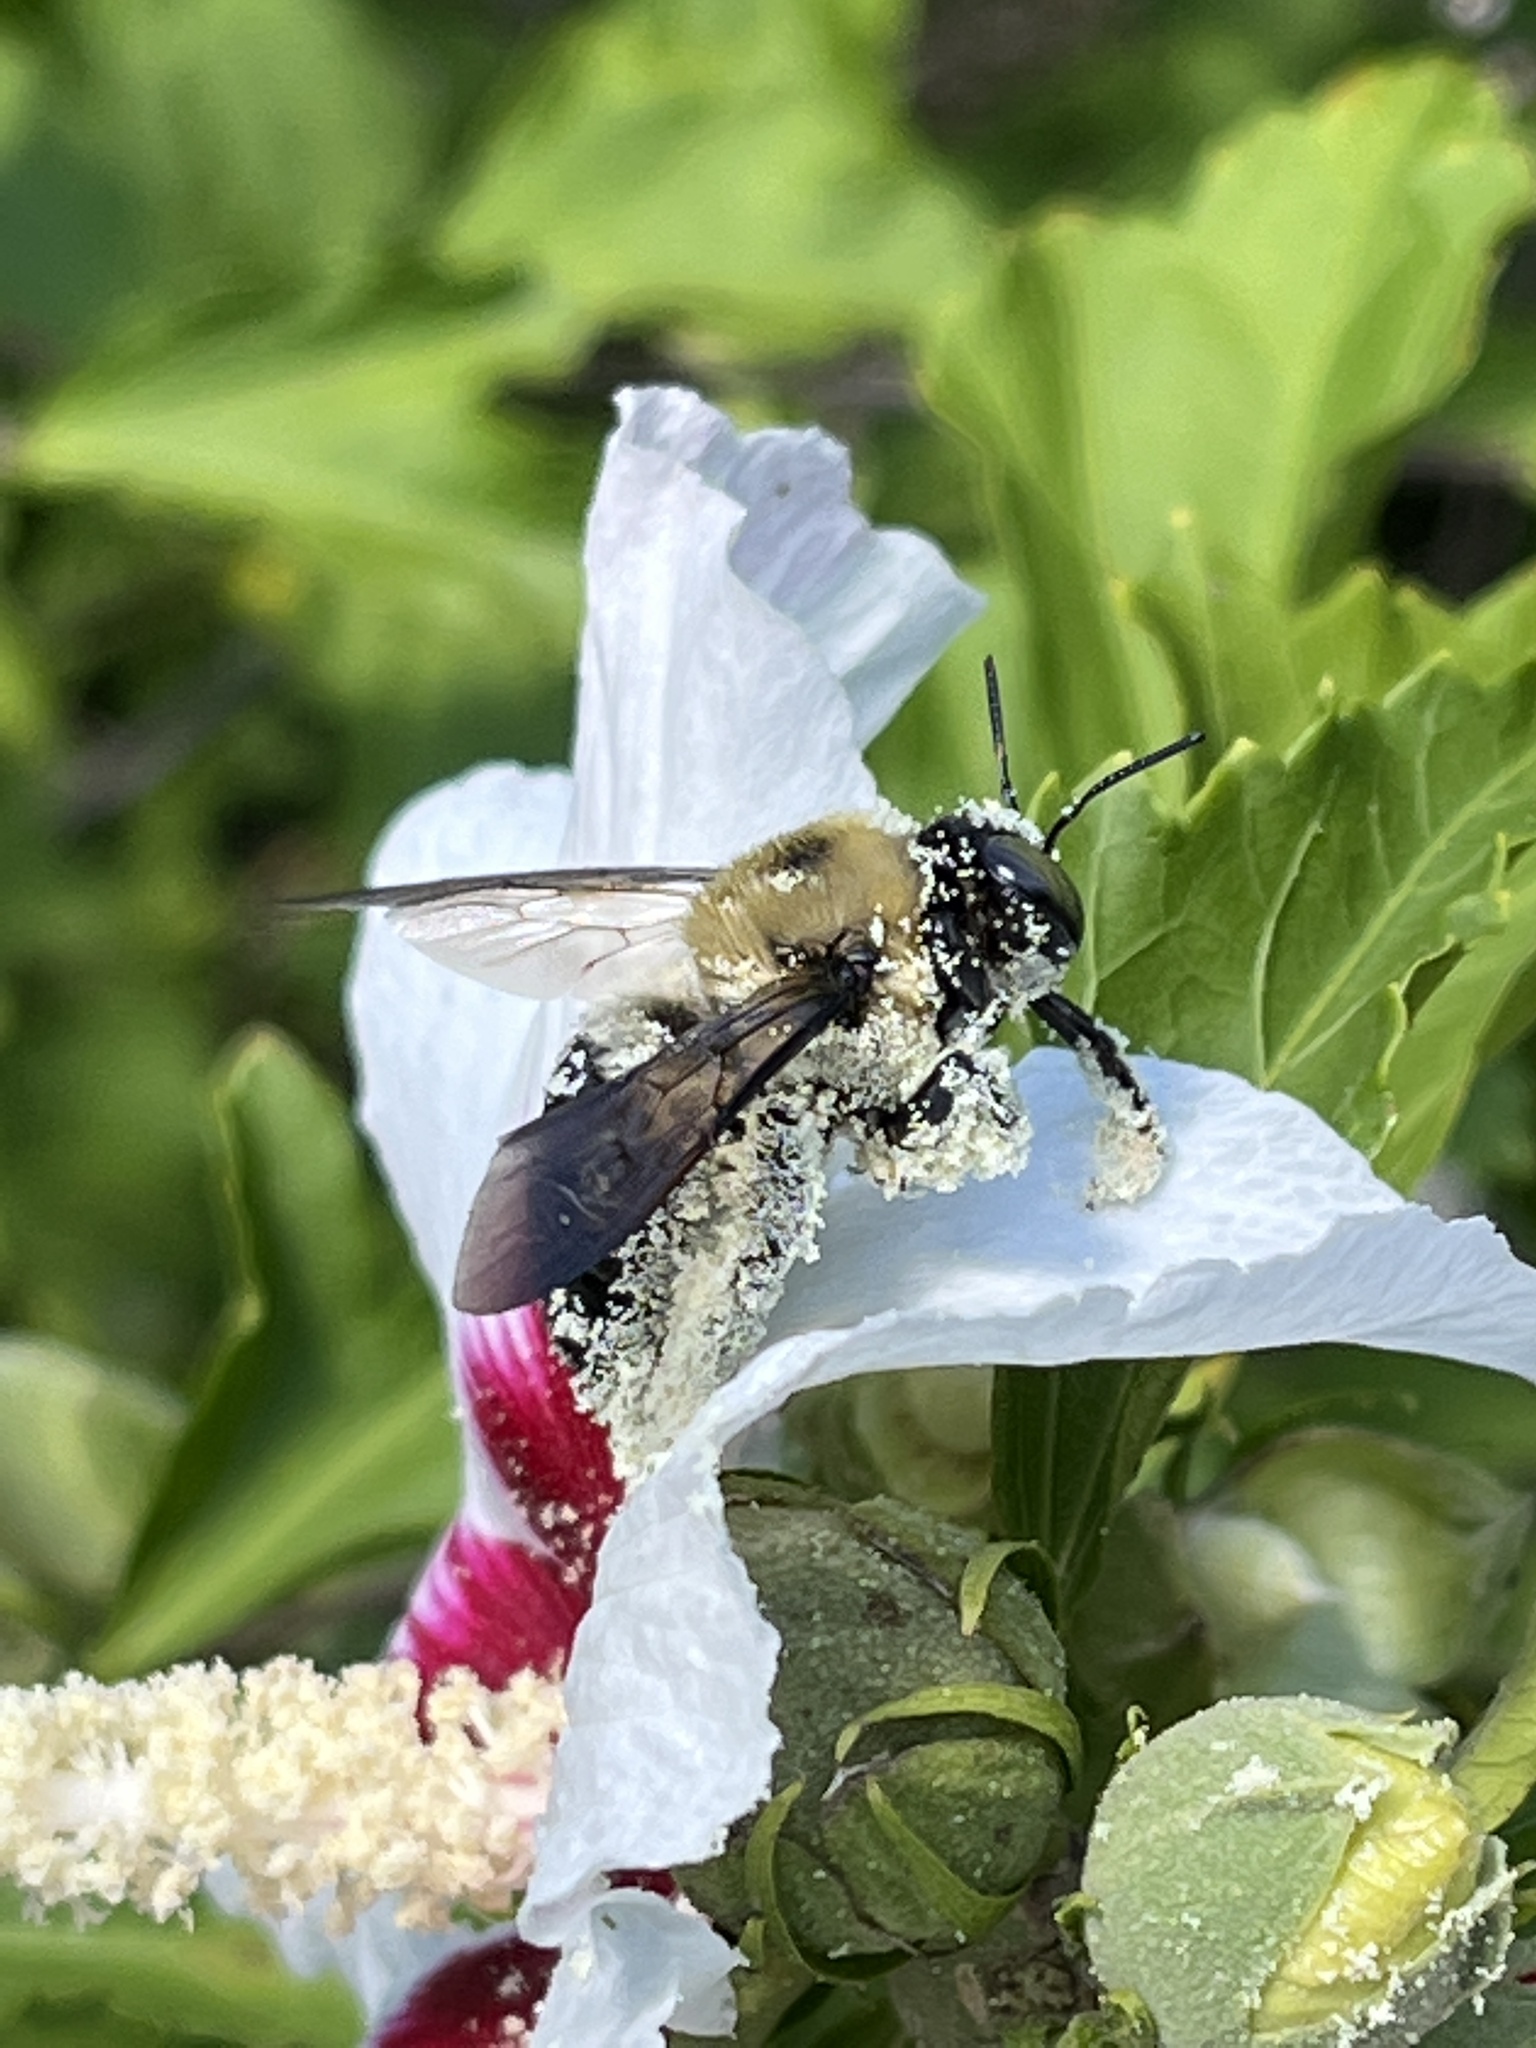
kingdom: Animalia
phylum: Arthropoda
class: Insecta
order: Hymenoptera
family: Apidae
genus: Xylocopa
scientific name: Xylocopa virginica
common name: Carpenter bee
